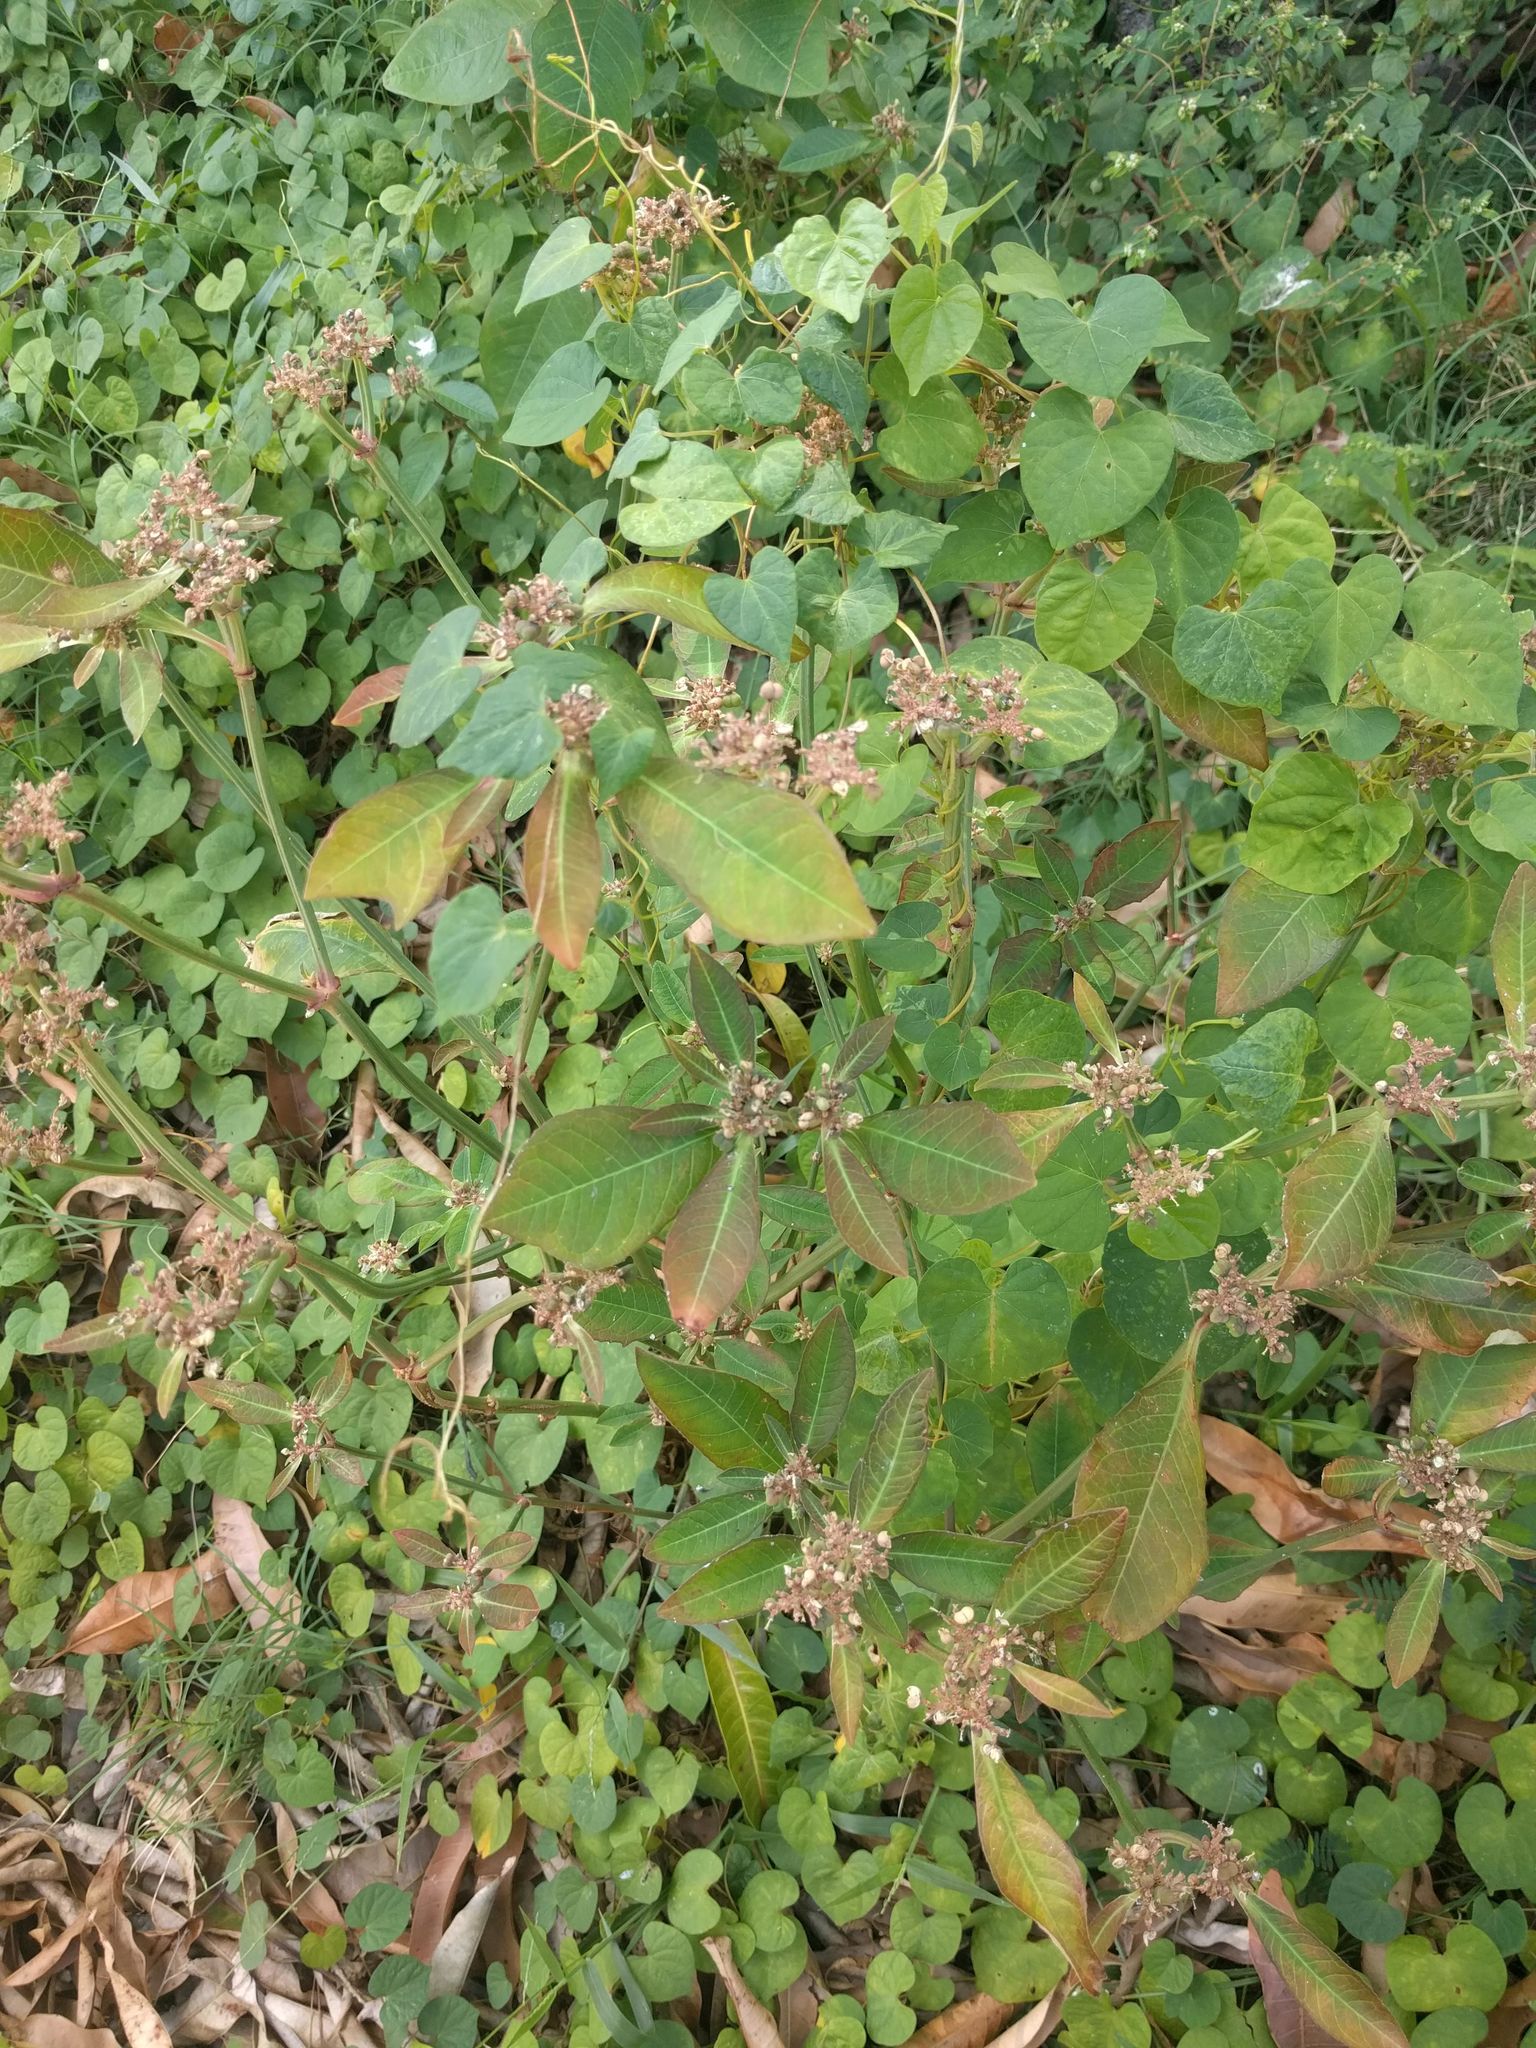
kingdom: Plantae
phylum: Tracheophyta
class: Magnoliopsida
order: Malpighiales
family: Euphorbiaceae
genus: Euphorbia
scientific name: Euphorbia heterophylla
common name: Mexican fireplant
